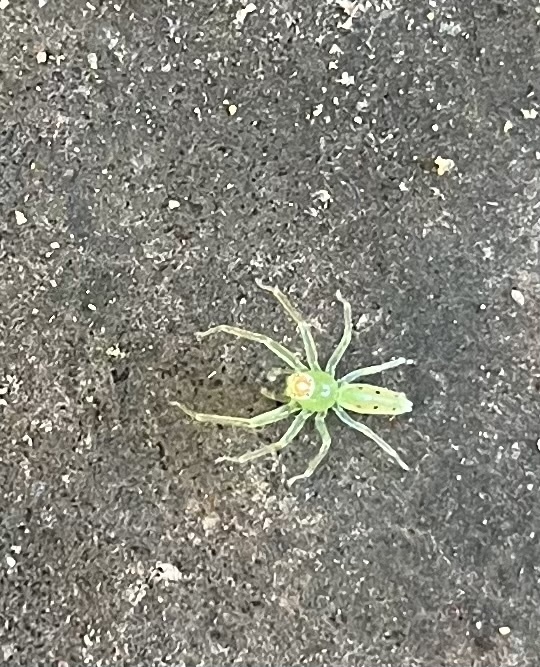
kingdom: Animalia
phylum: Arthropoda
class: Arachnida
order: Araneae
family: Salticidae
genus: Lyssomanes
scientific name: Lyssomanes viridis
